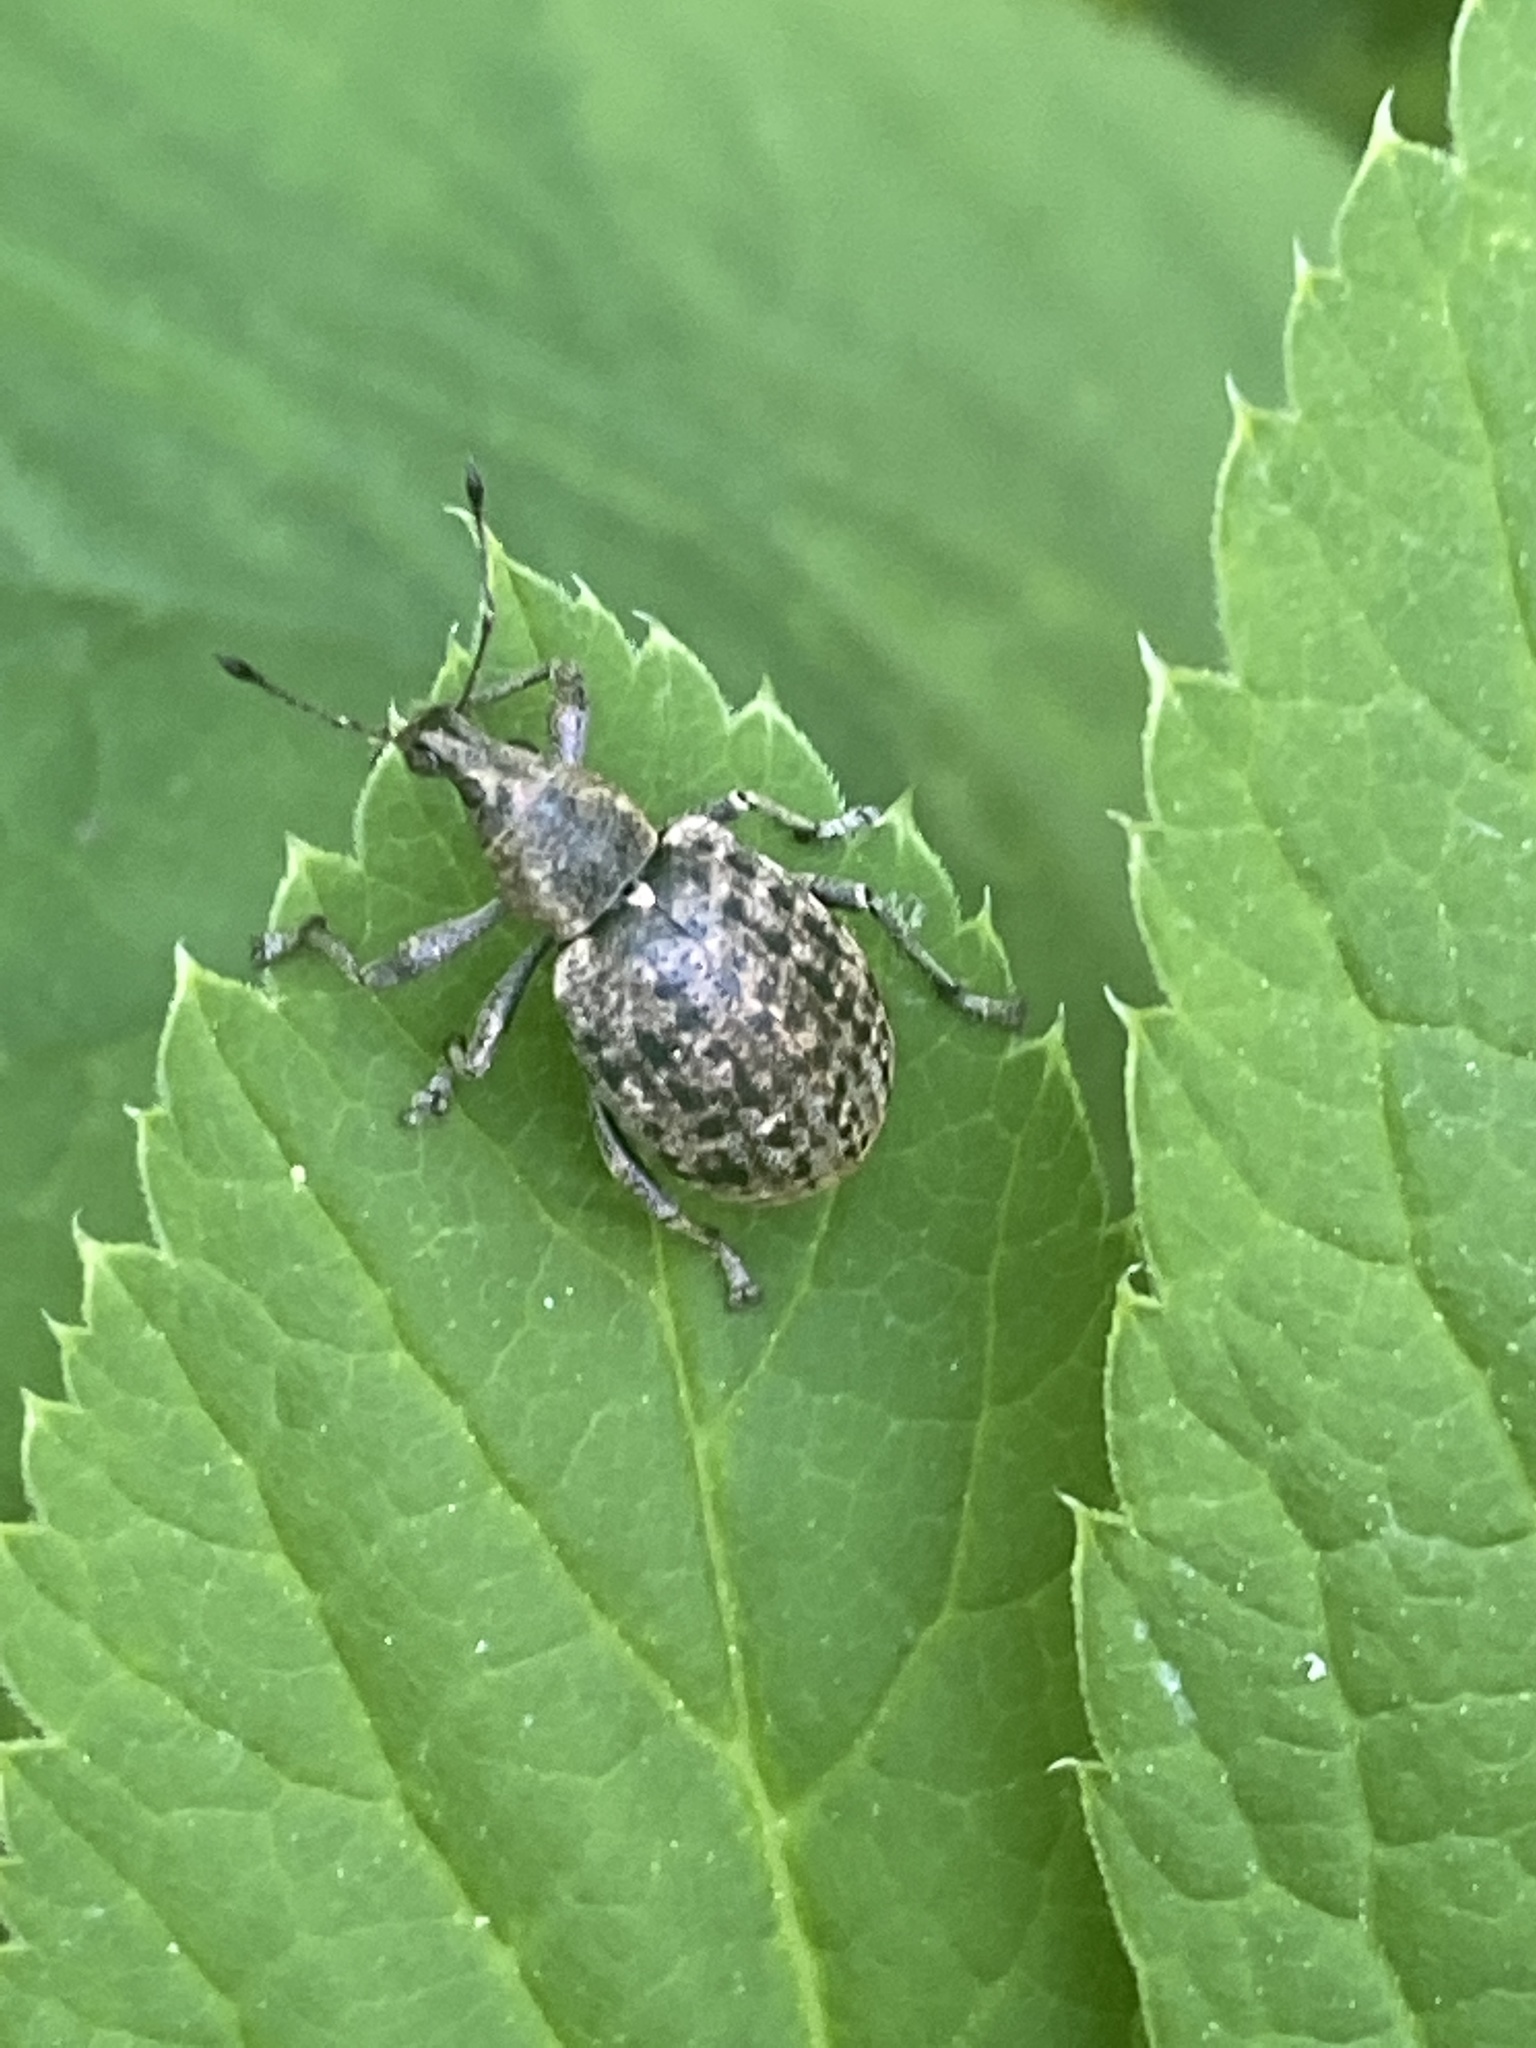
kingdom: Animalia
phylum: Arthropoda
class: Insecta
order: Coleoptera
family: Curculionidae
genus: Liophloeus
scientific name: Liophloeus tessulatus
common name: Weevil
